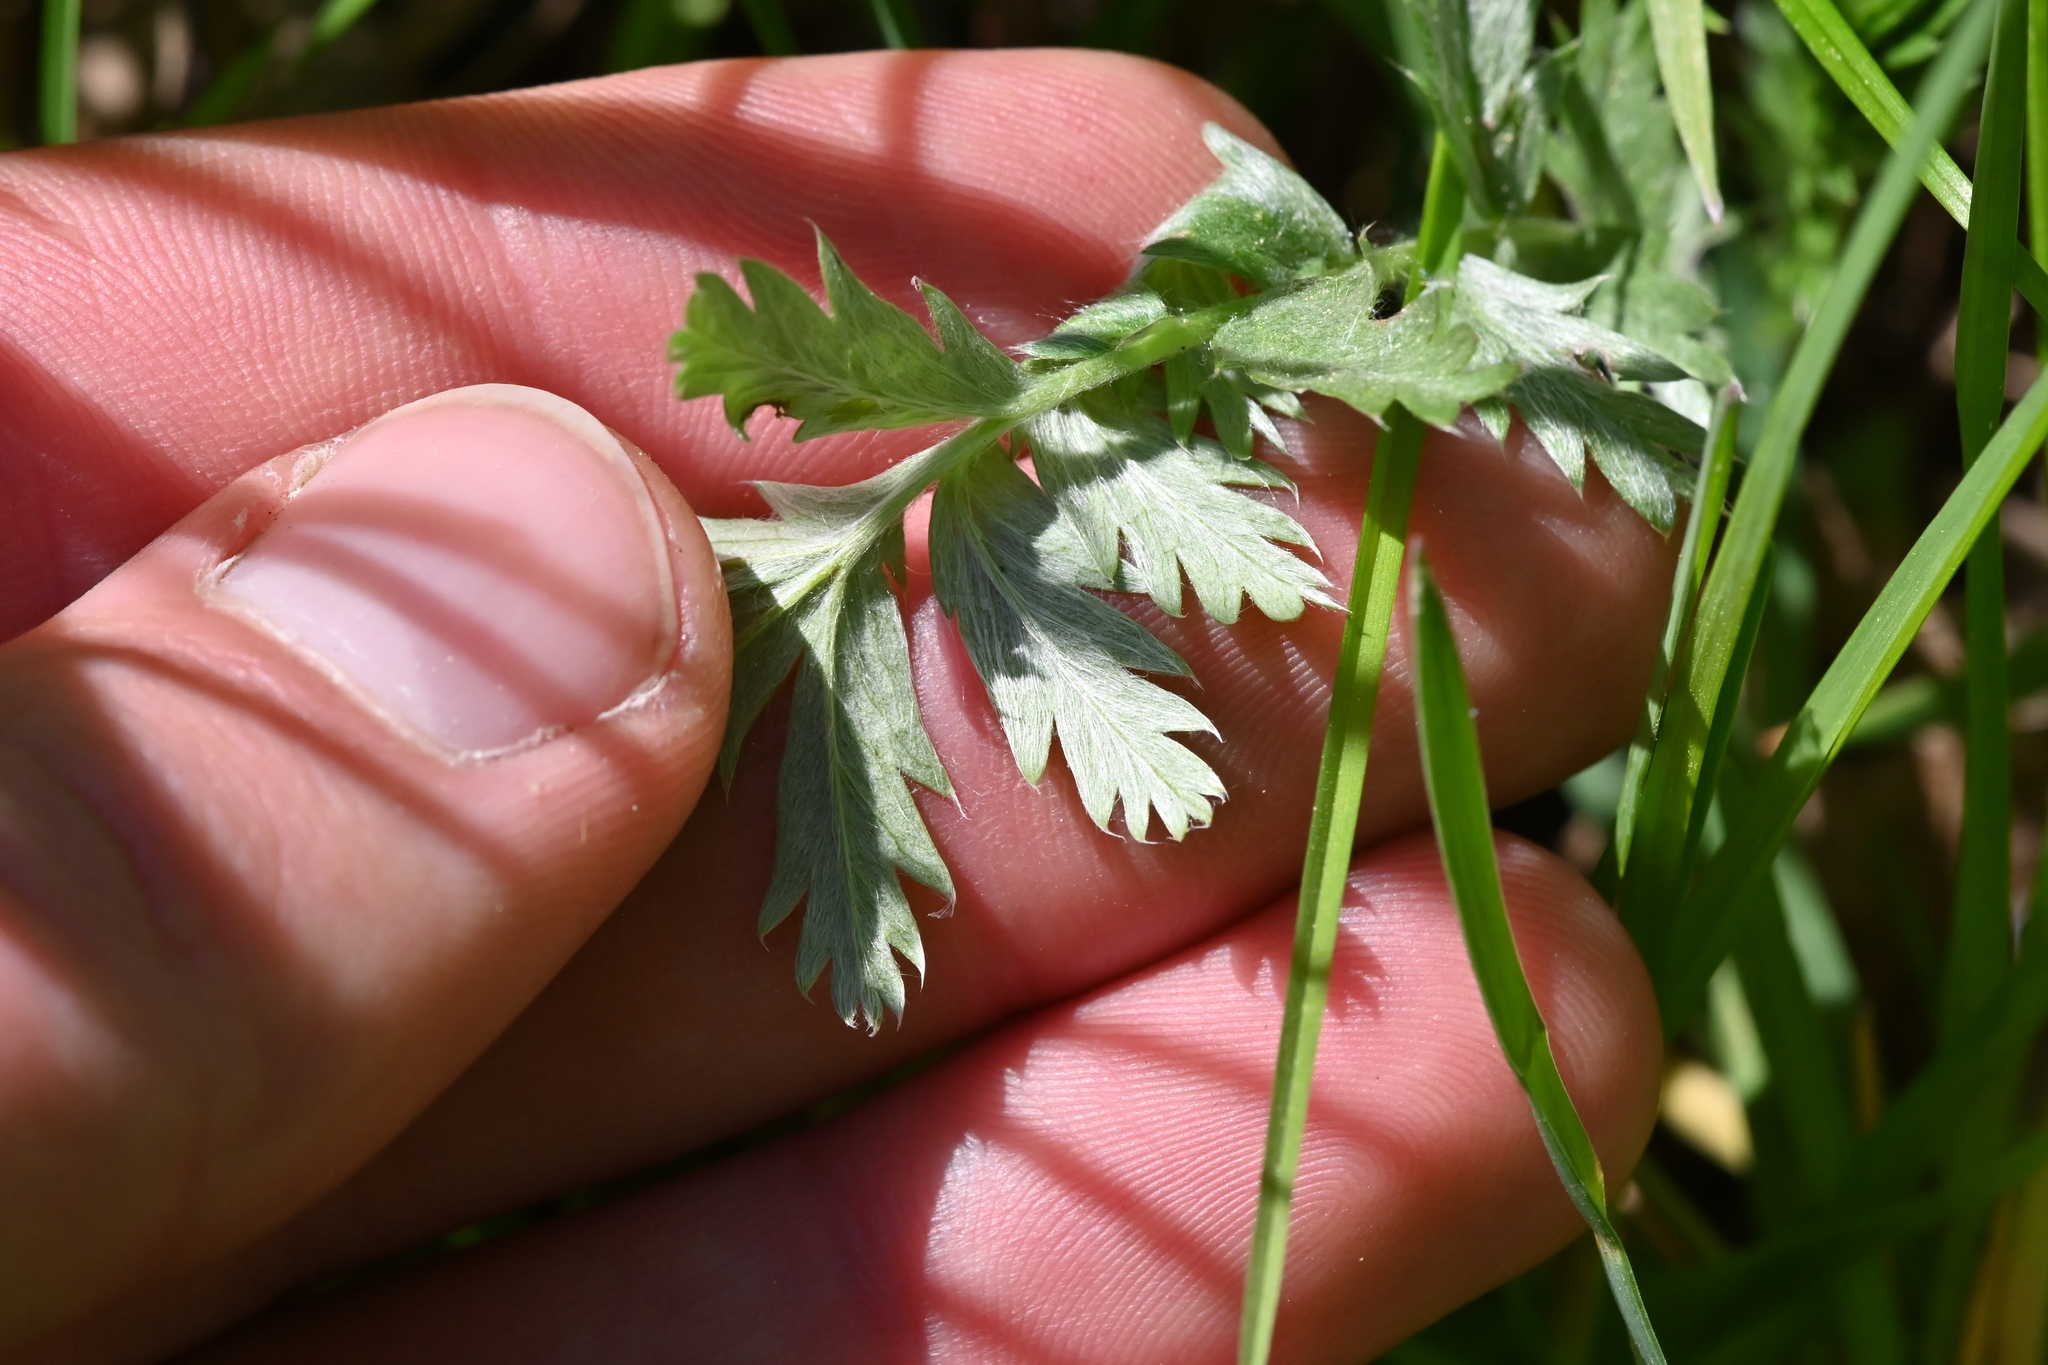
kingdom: Plantae
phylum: Tracheophyta
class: Magnoliopsida
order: Rosales
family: Rosaceae
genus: Argentina
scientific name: Argentina anserina
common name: Common silverweed
